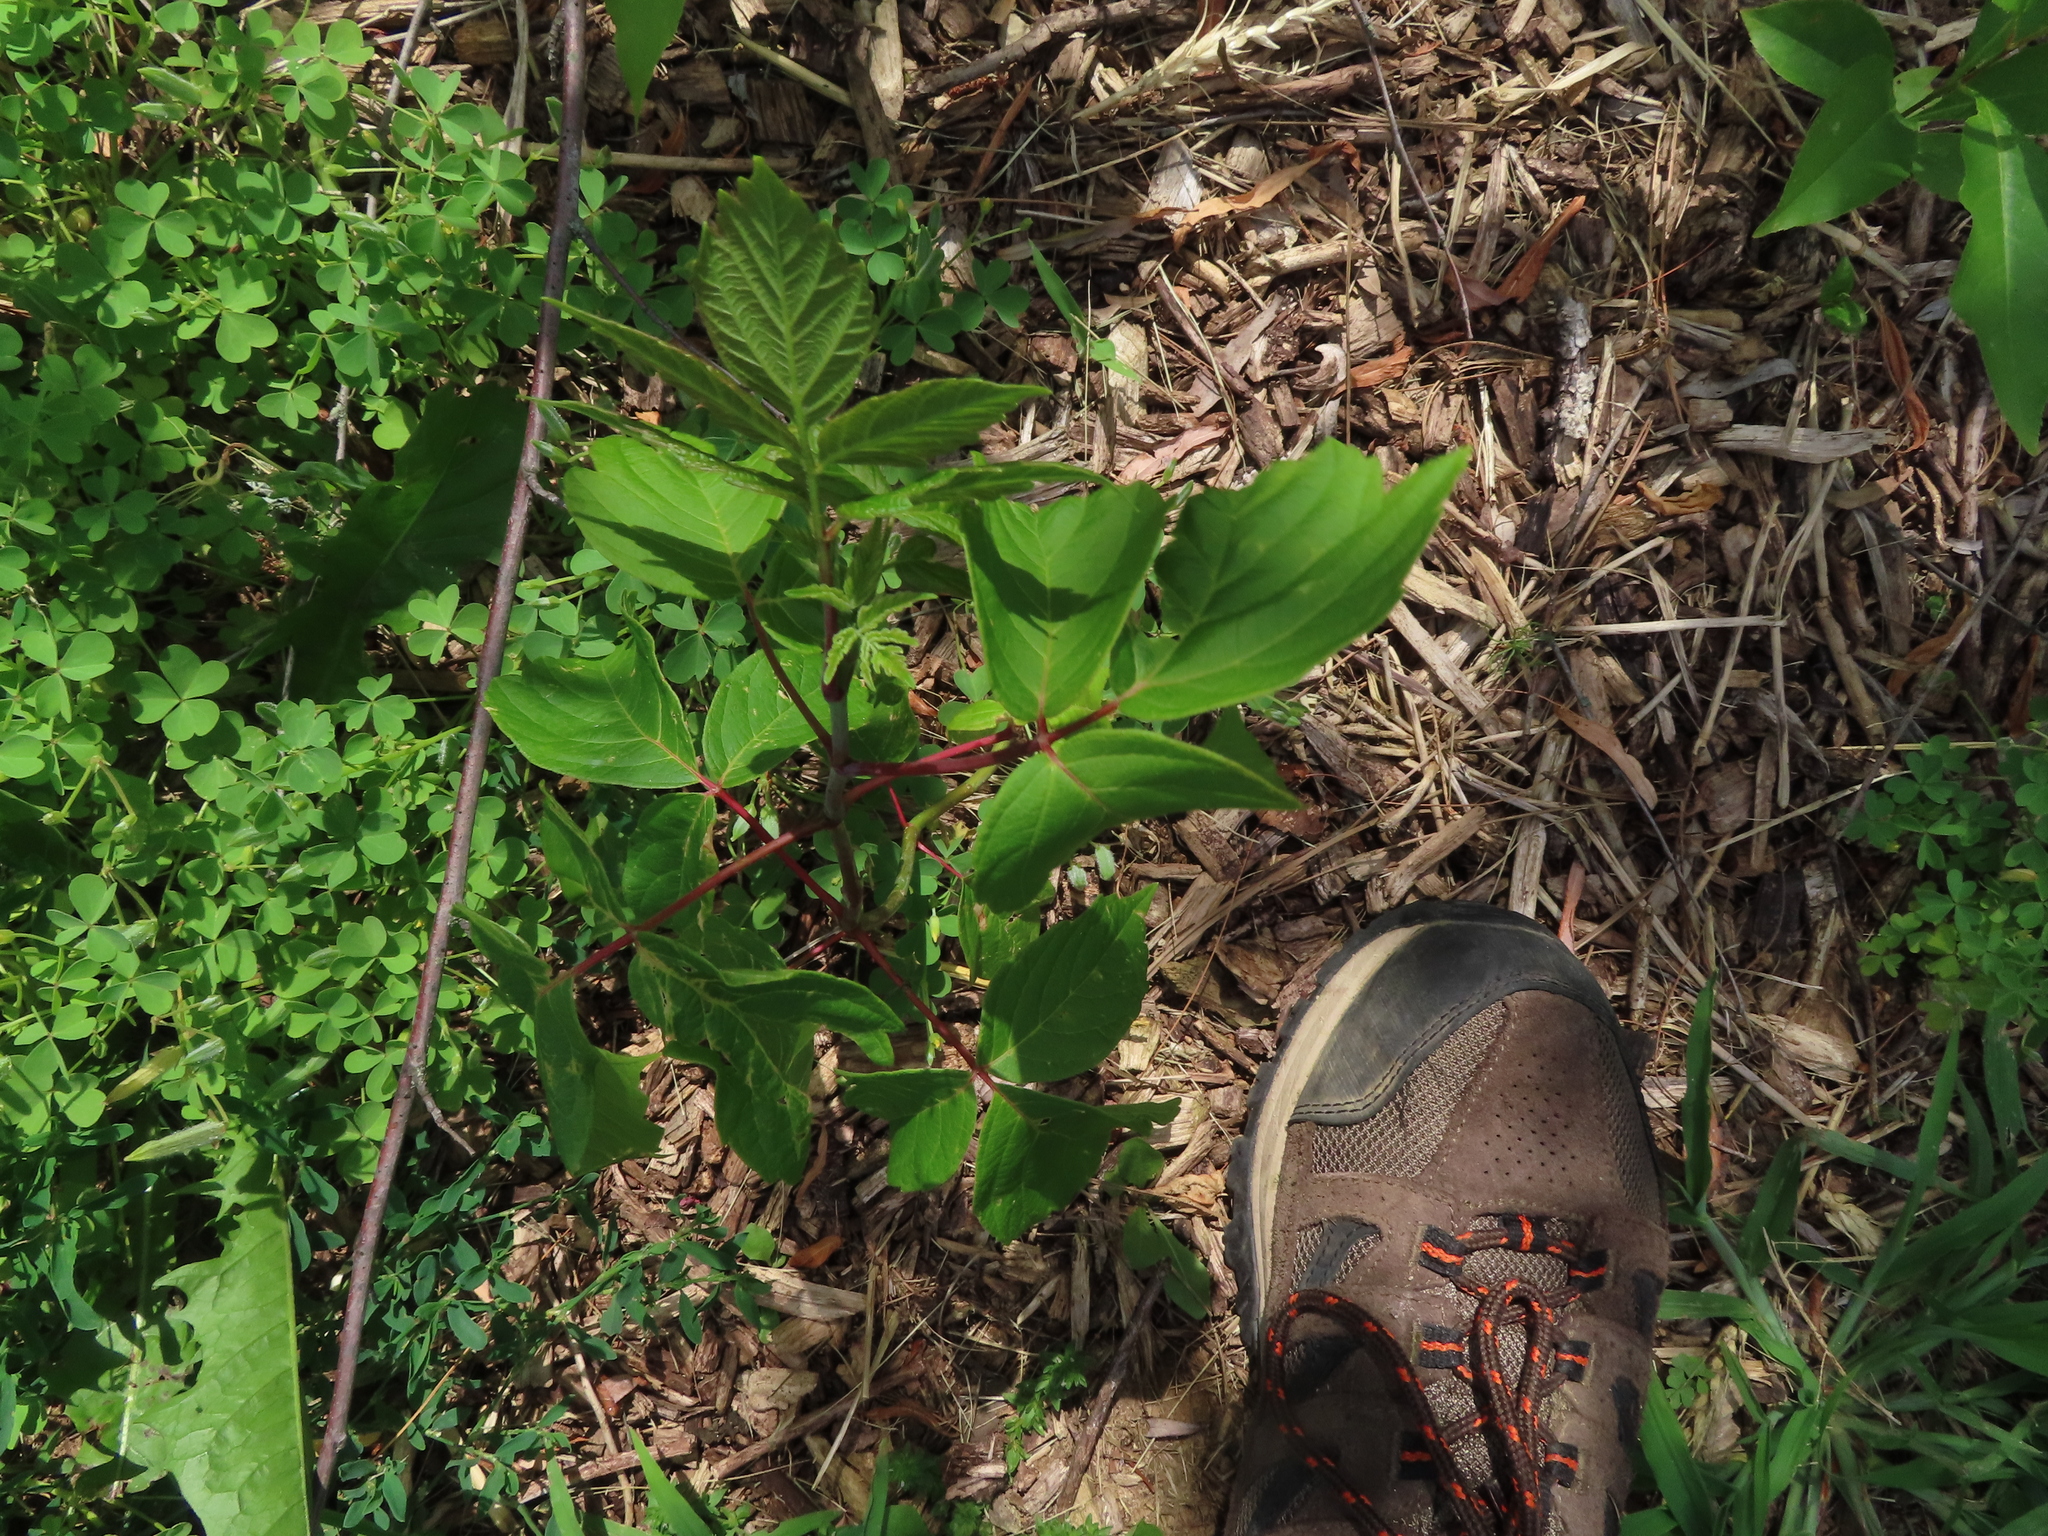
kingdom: Plantae
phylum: Tracheophyta
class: Magnoliopsida
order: Sapindales
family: Sapindaceae
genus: Acer
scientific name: Acer negundo
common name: Ashleaf maple
